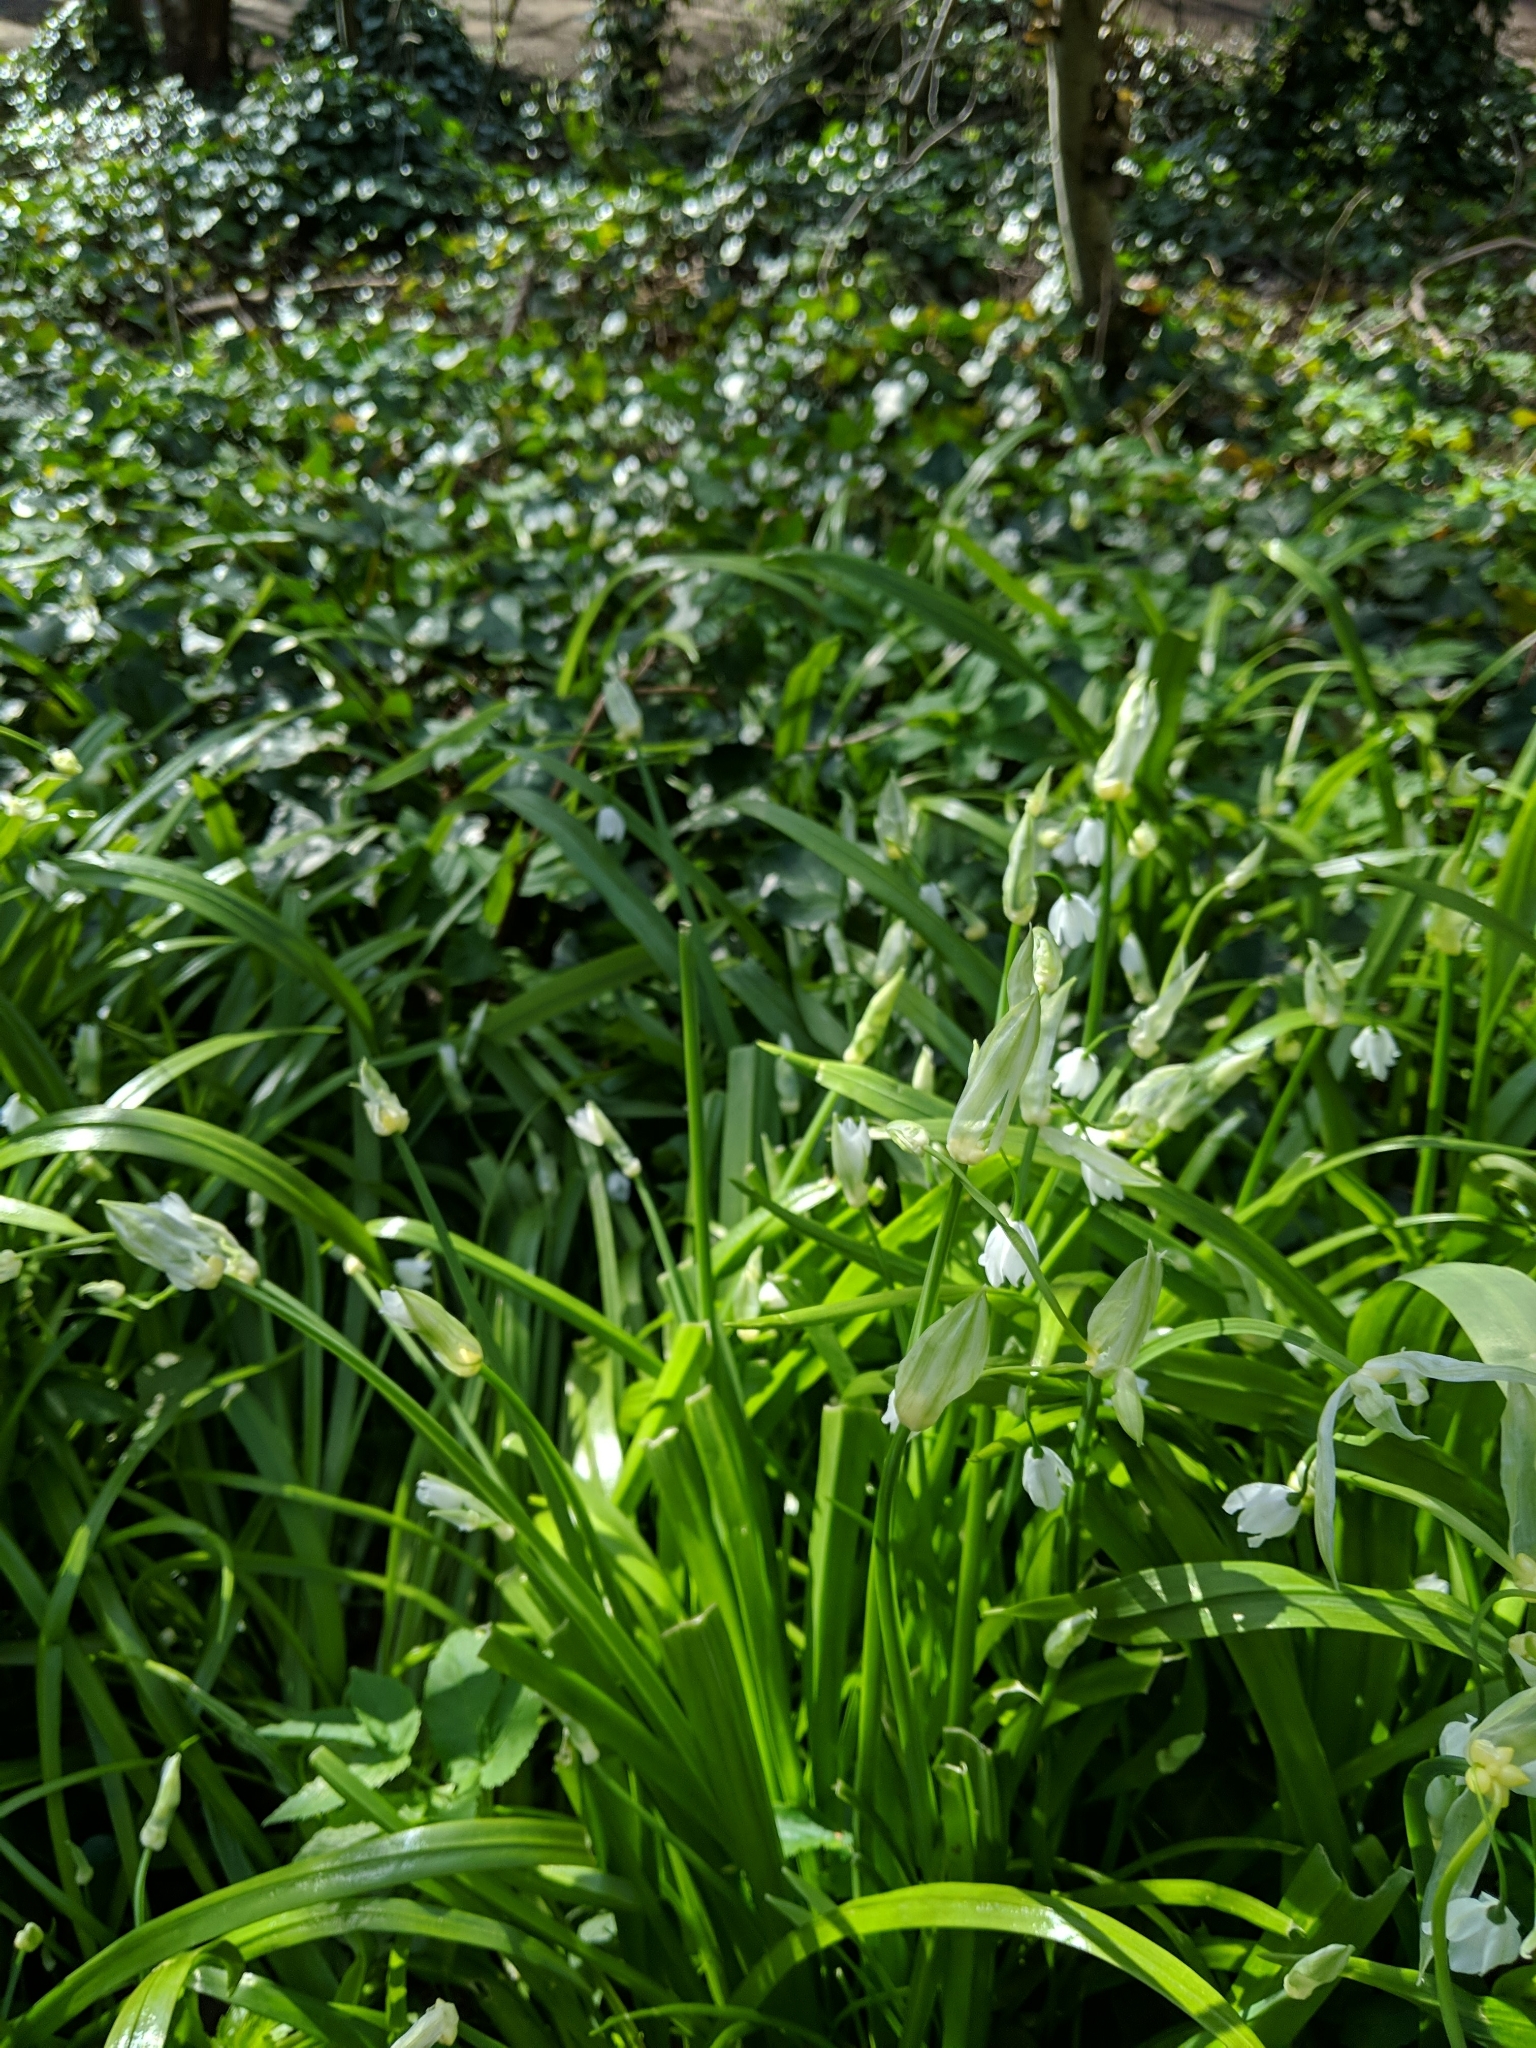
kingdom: Plantae
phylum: Tracheophyta
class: Liliopsida
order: Asparagales
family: Amaryllidaceae
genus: Allium
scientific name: Allium paradoxum
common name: Few-flowered garlic
